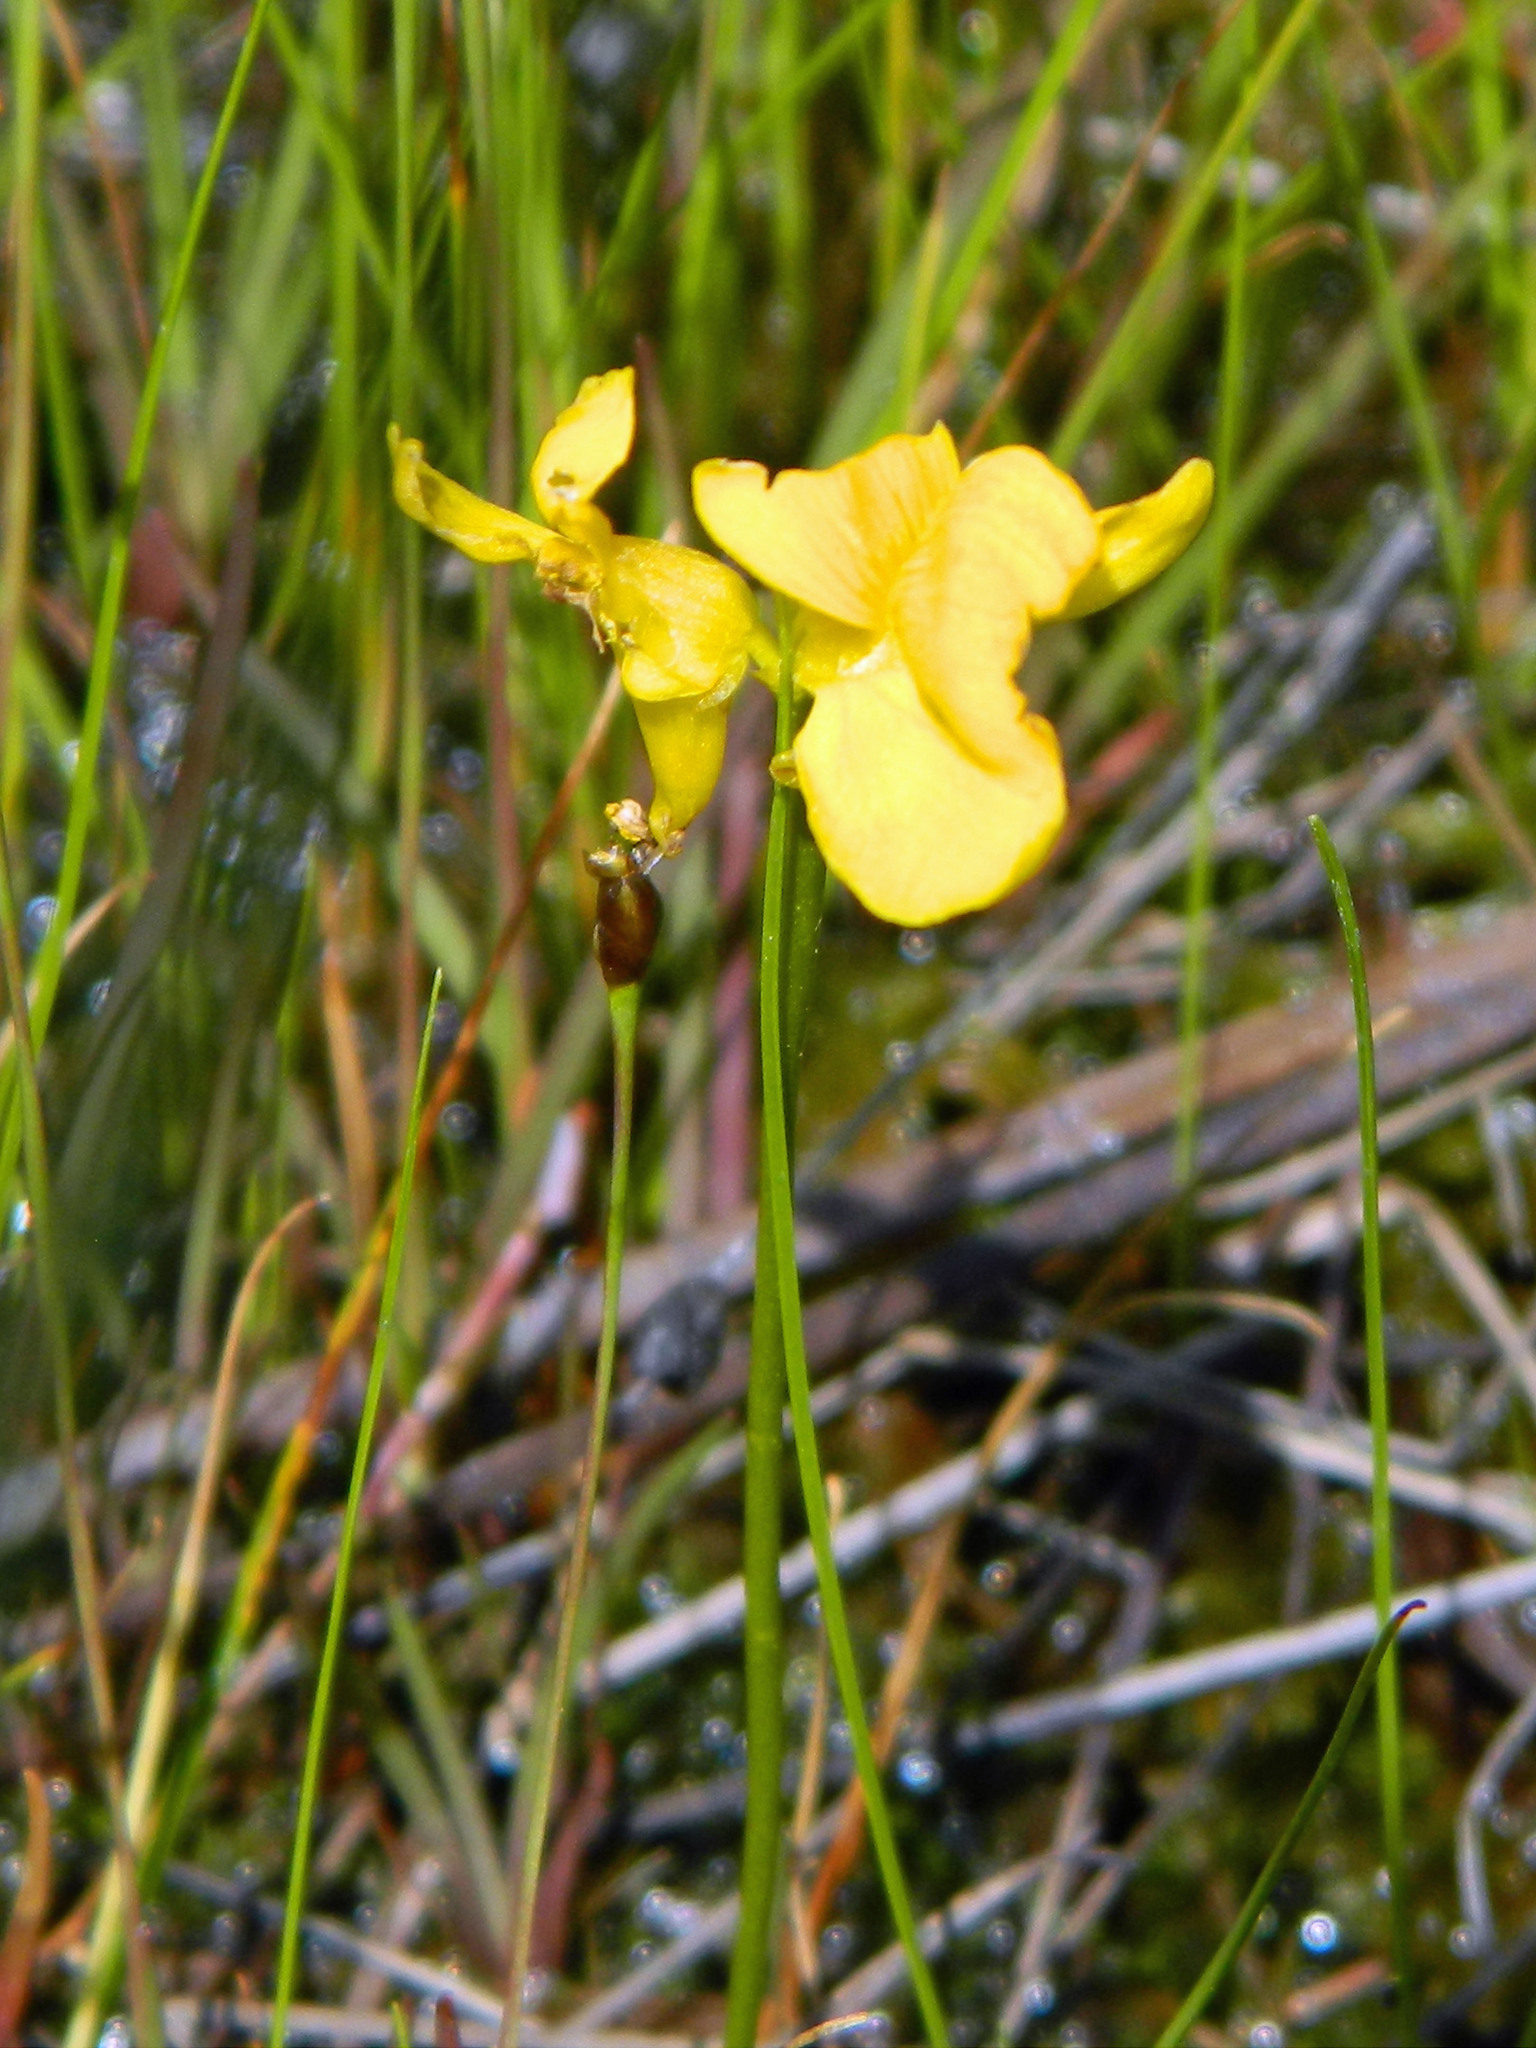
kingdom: Plantae
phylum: Tracheophyta
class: Magnoliopsida
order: Lamiales
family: Lentibulariaceae
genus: Utricularia
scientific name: Utricularia cornuta
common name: Horned bladderwort
